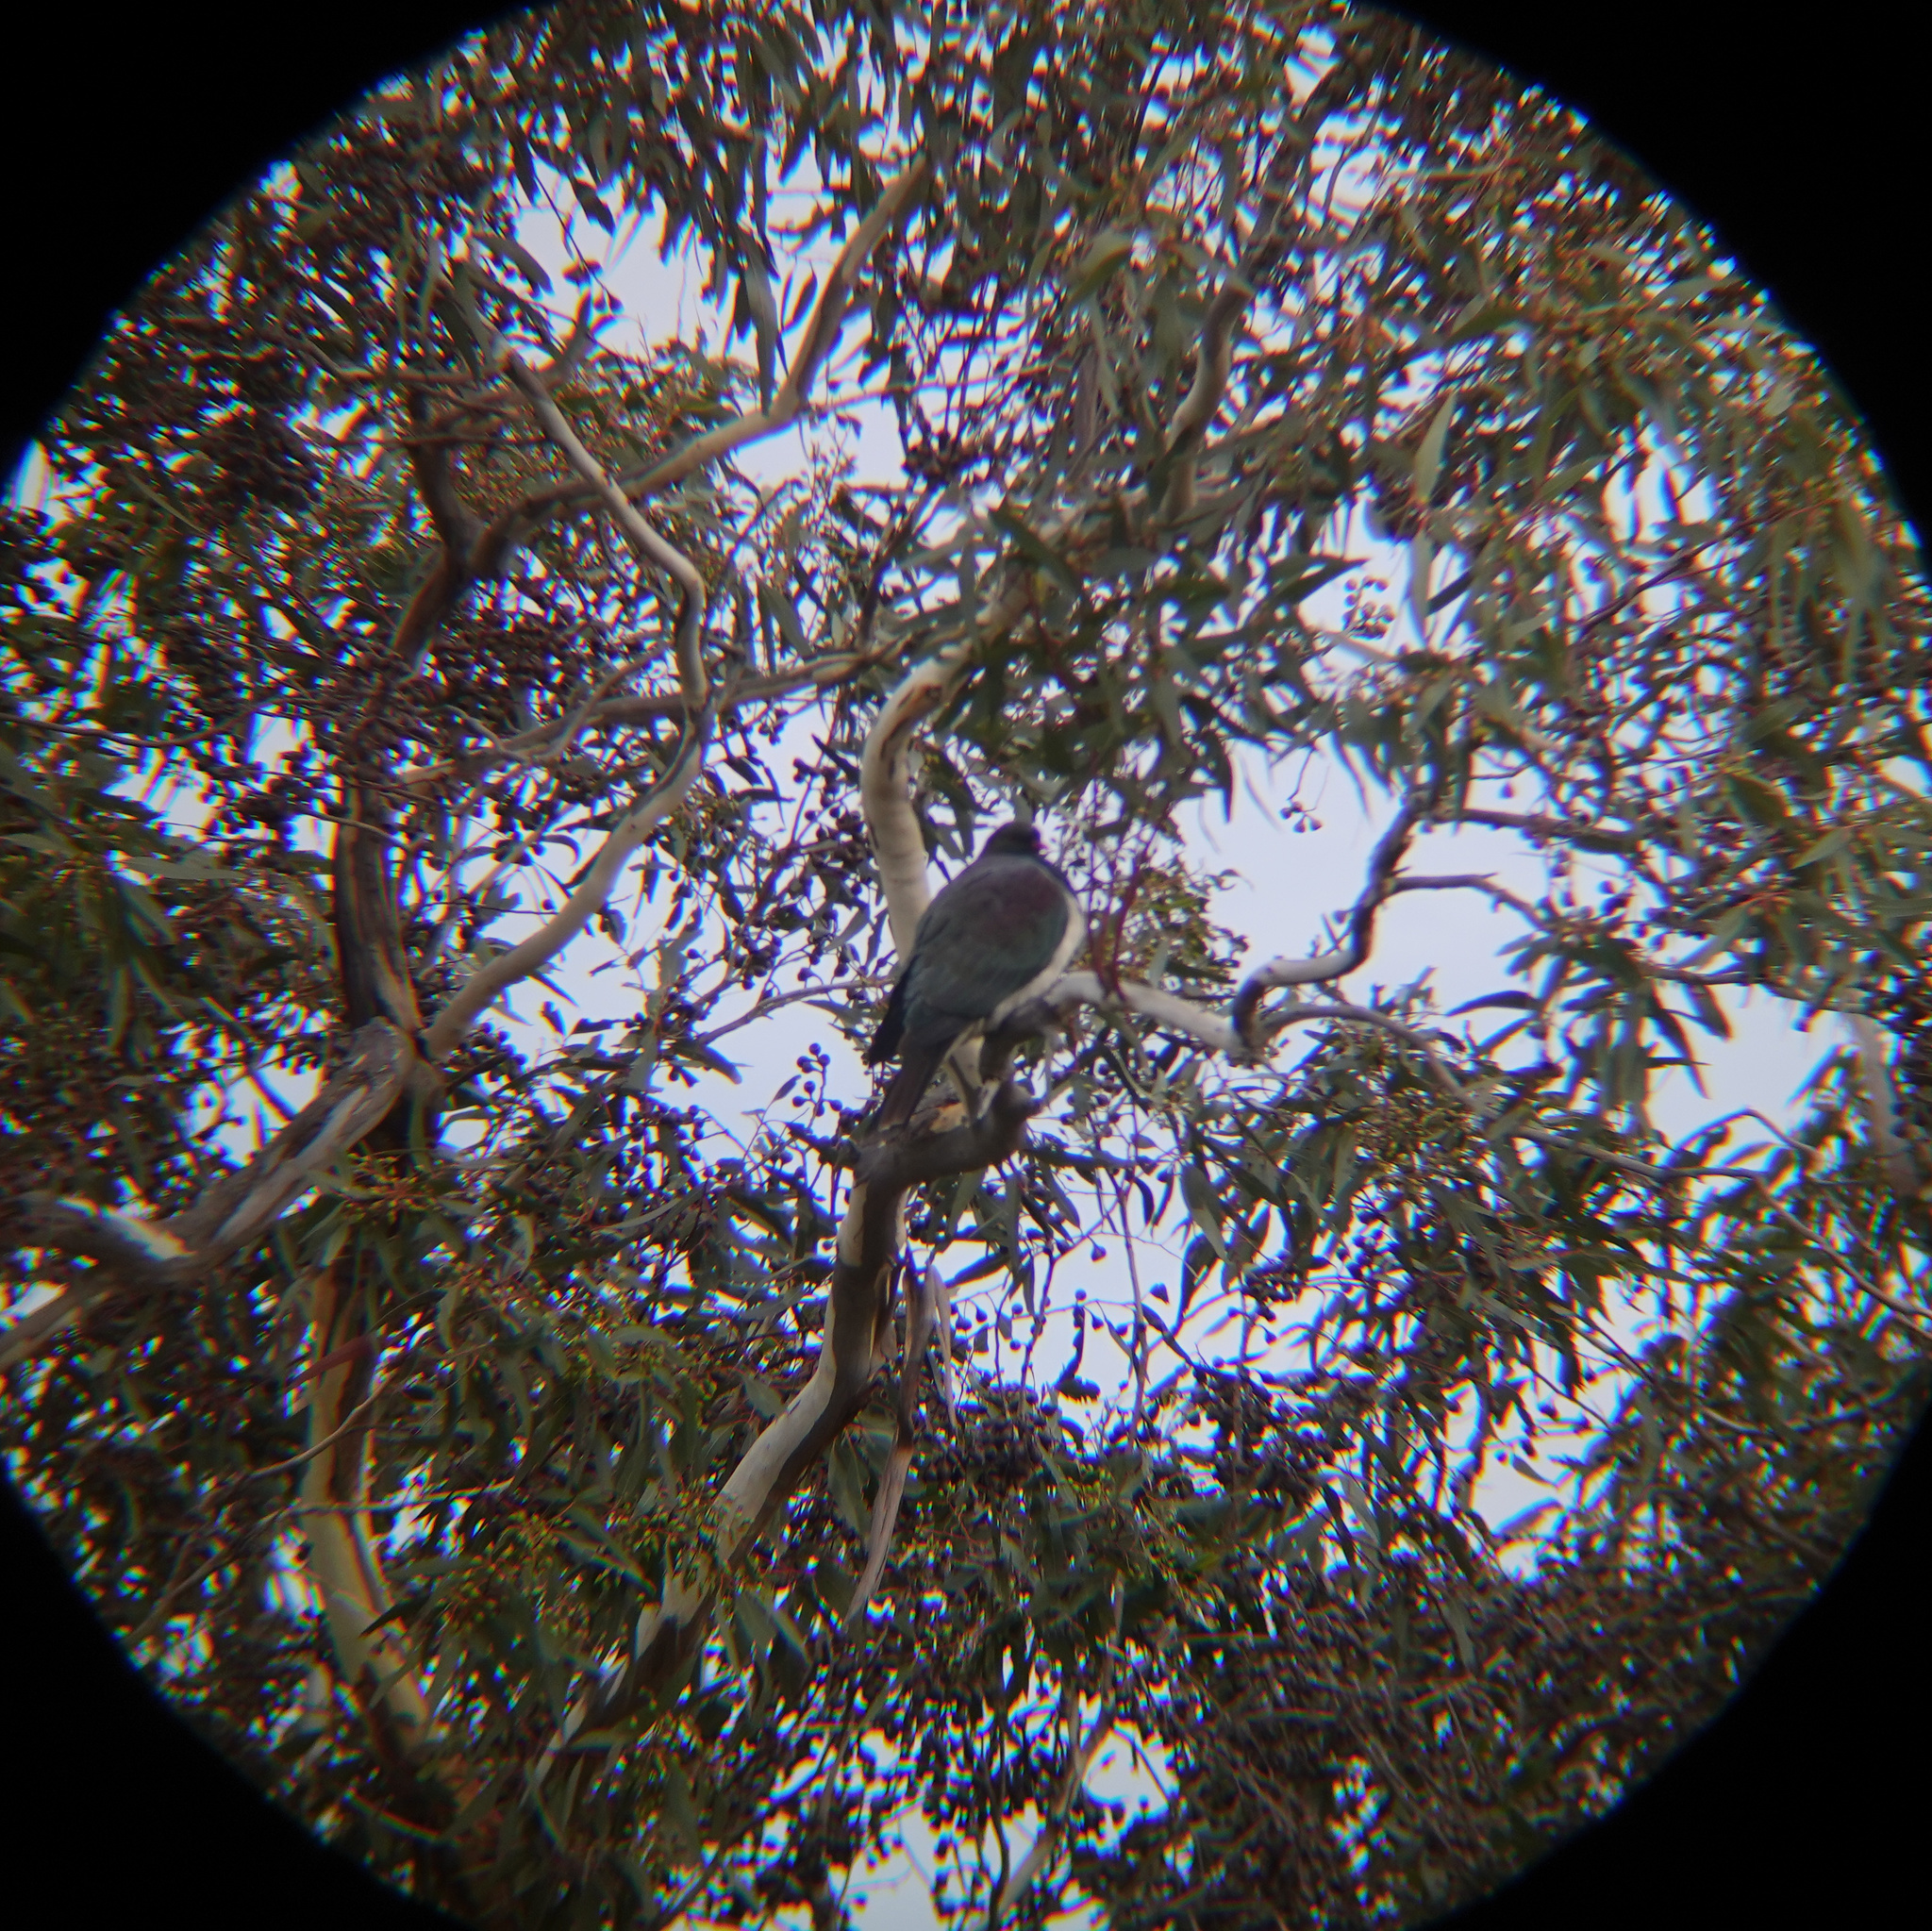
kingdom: Animalia
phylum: Chordata
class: Aves
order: Columbiformes
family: Columbidae
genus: Hemiphaga
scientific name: Hemiphaga novaeseelandiae
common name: New zealand pigeon
